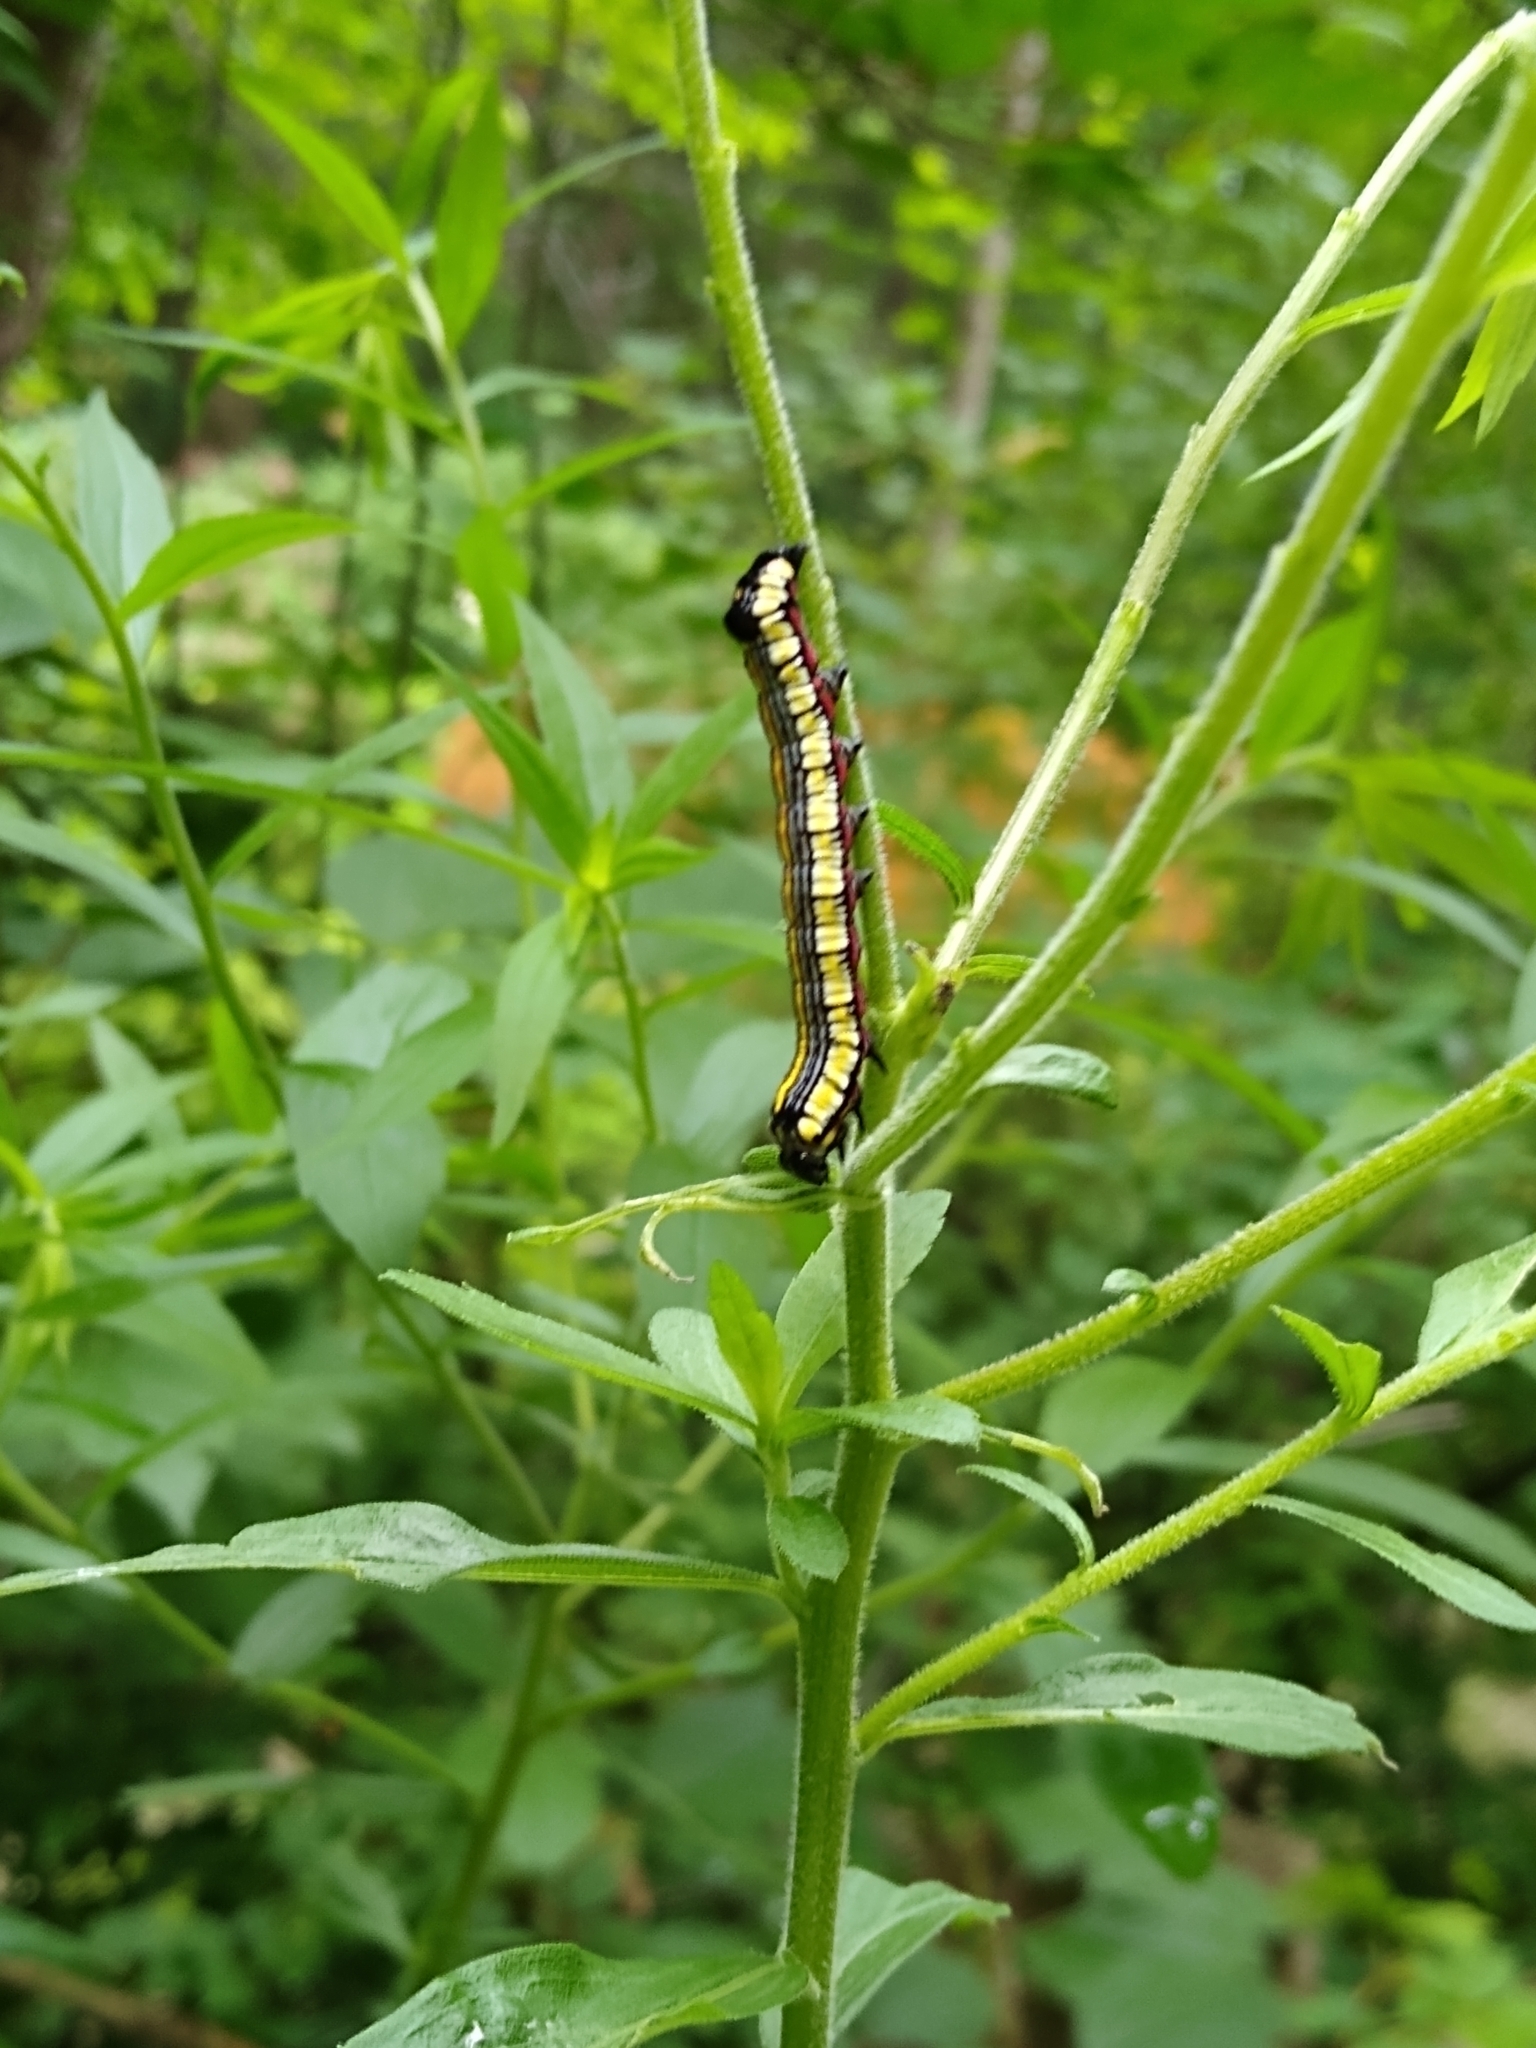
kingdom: Animalia
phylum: Arthropoda
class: Insecta
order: Lepidoptera
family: Noctuidae
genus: Cucullia
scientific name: Cucullia convexipennis
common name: Brown-hooded owlet
